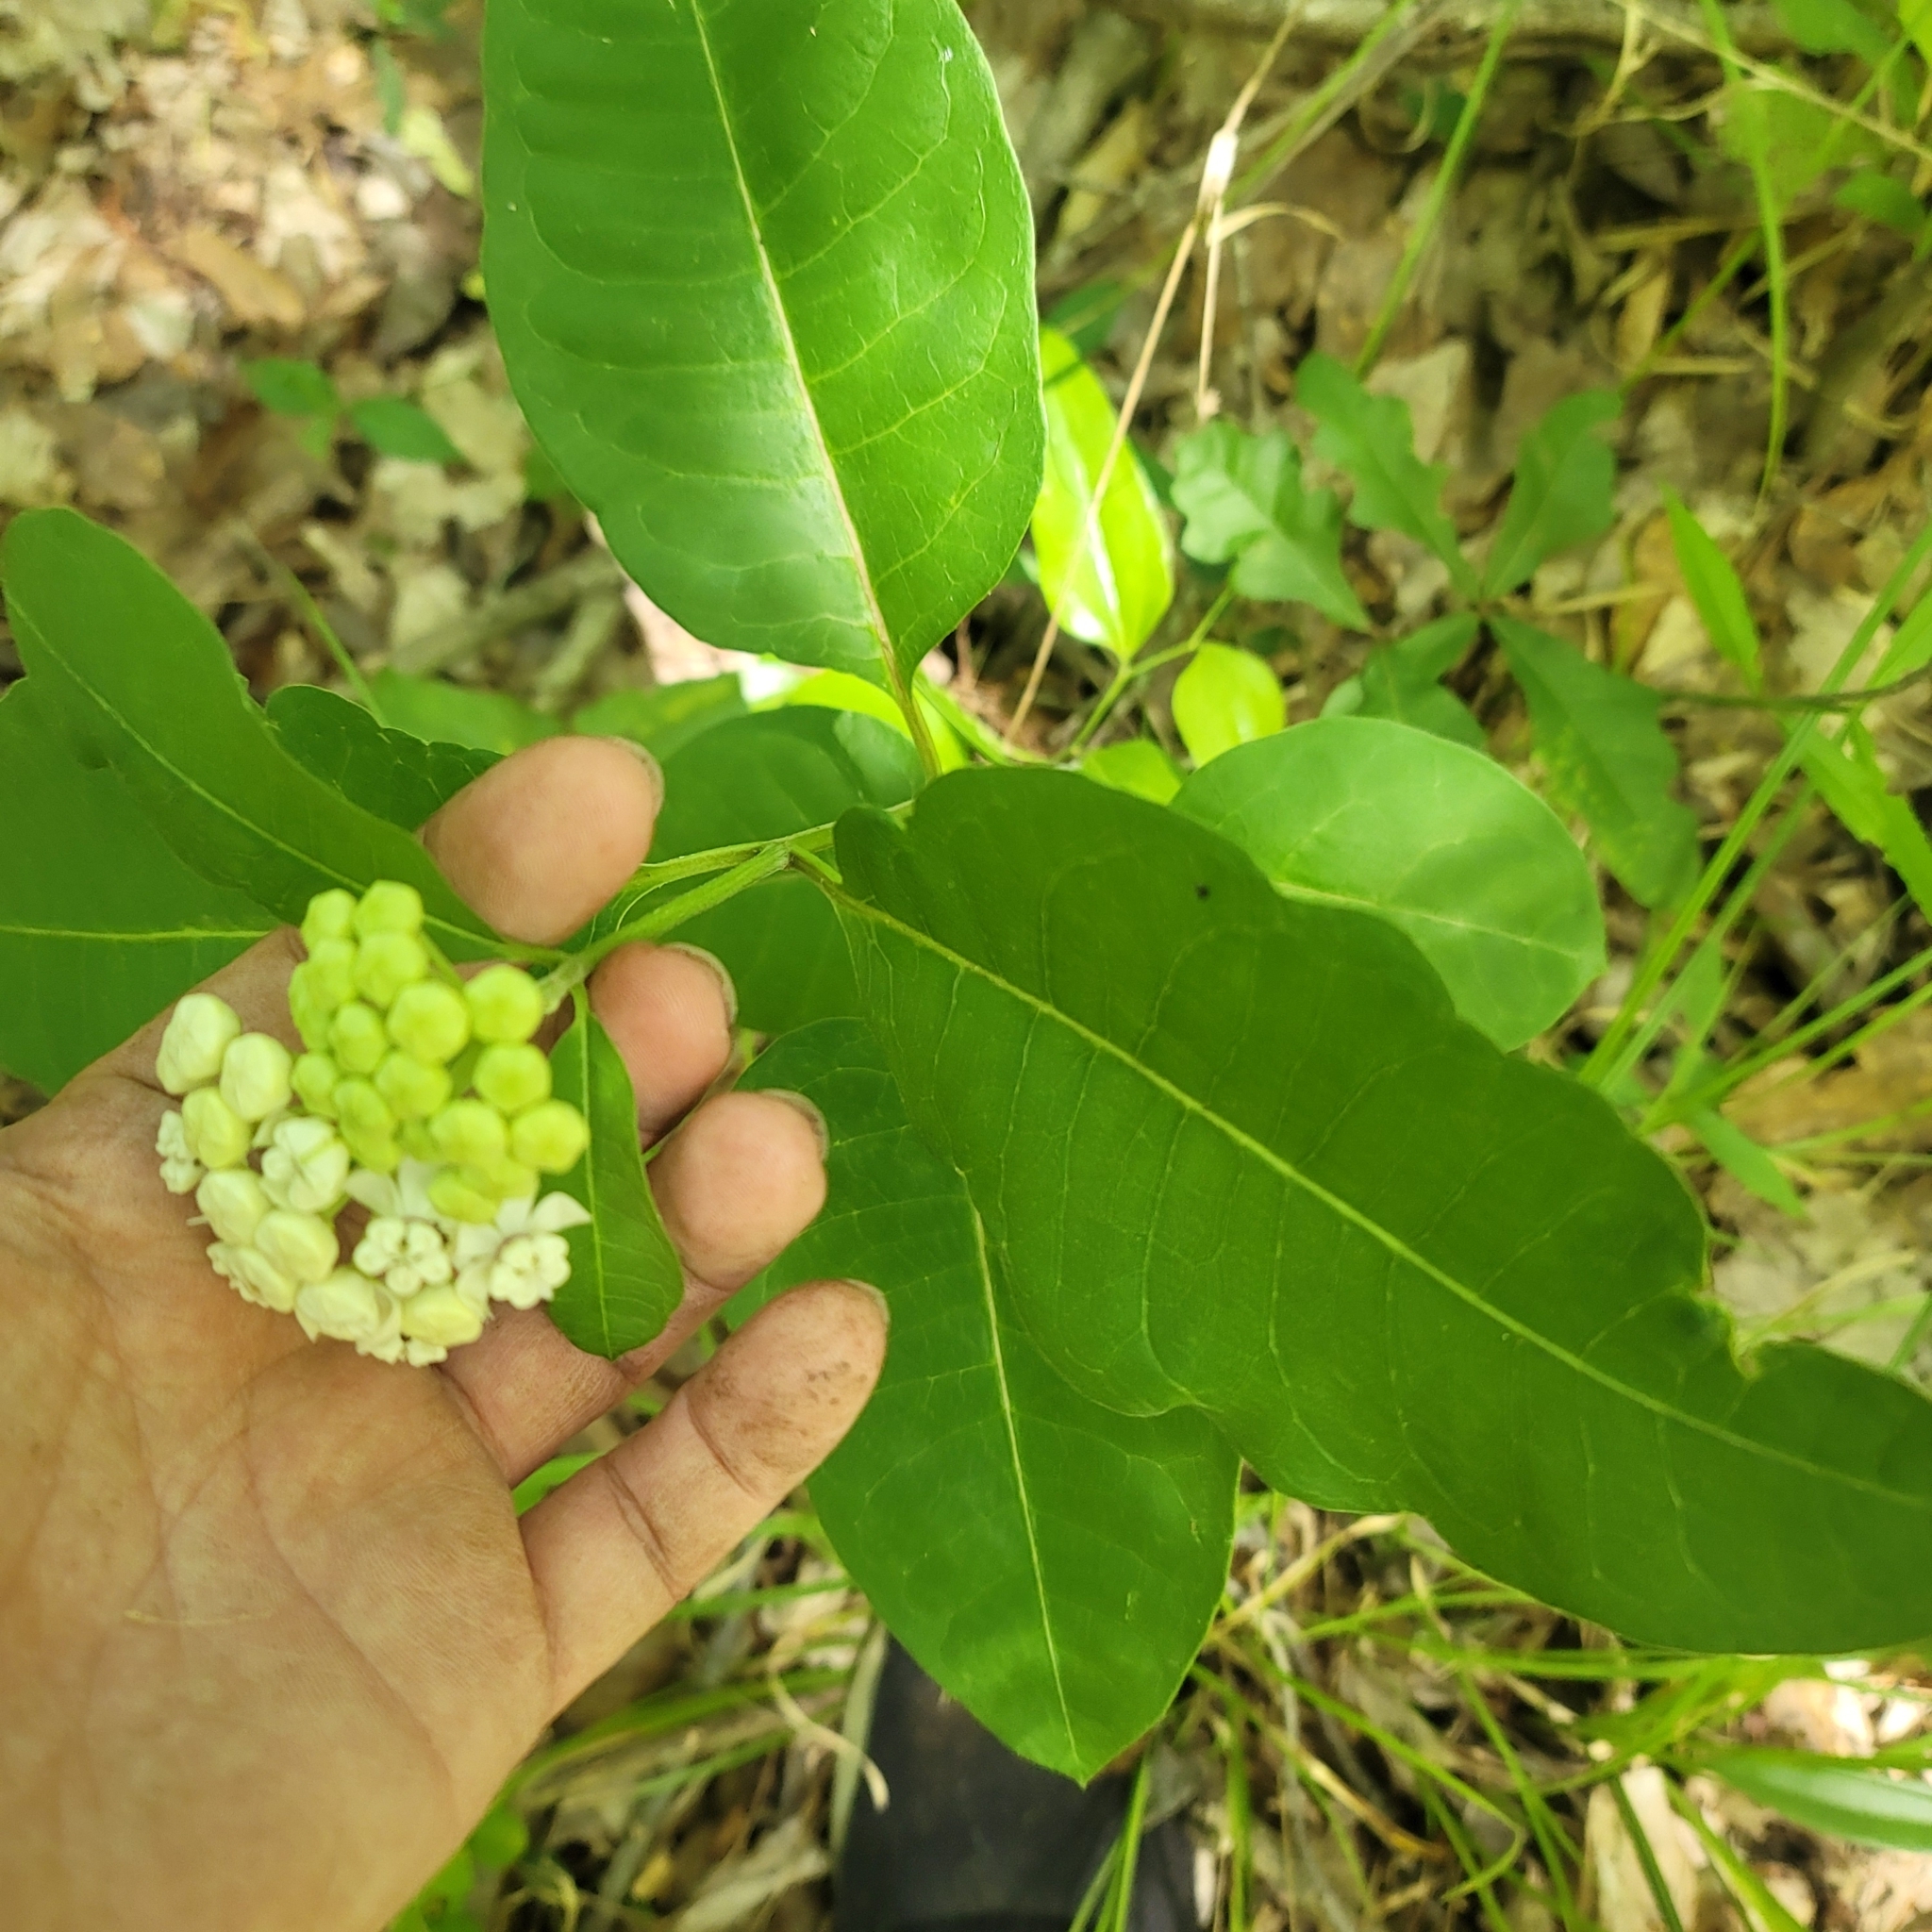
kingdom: Plantae
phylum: Tracheophyta
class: Magnoliopsida
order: Gentianales
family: Apocynaceae
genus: Asclepias
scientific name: Asclepias variegata
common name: Variegated milkweed
